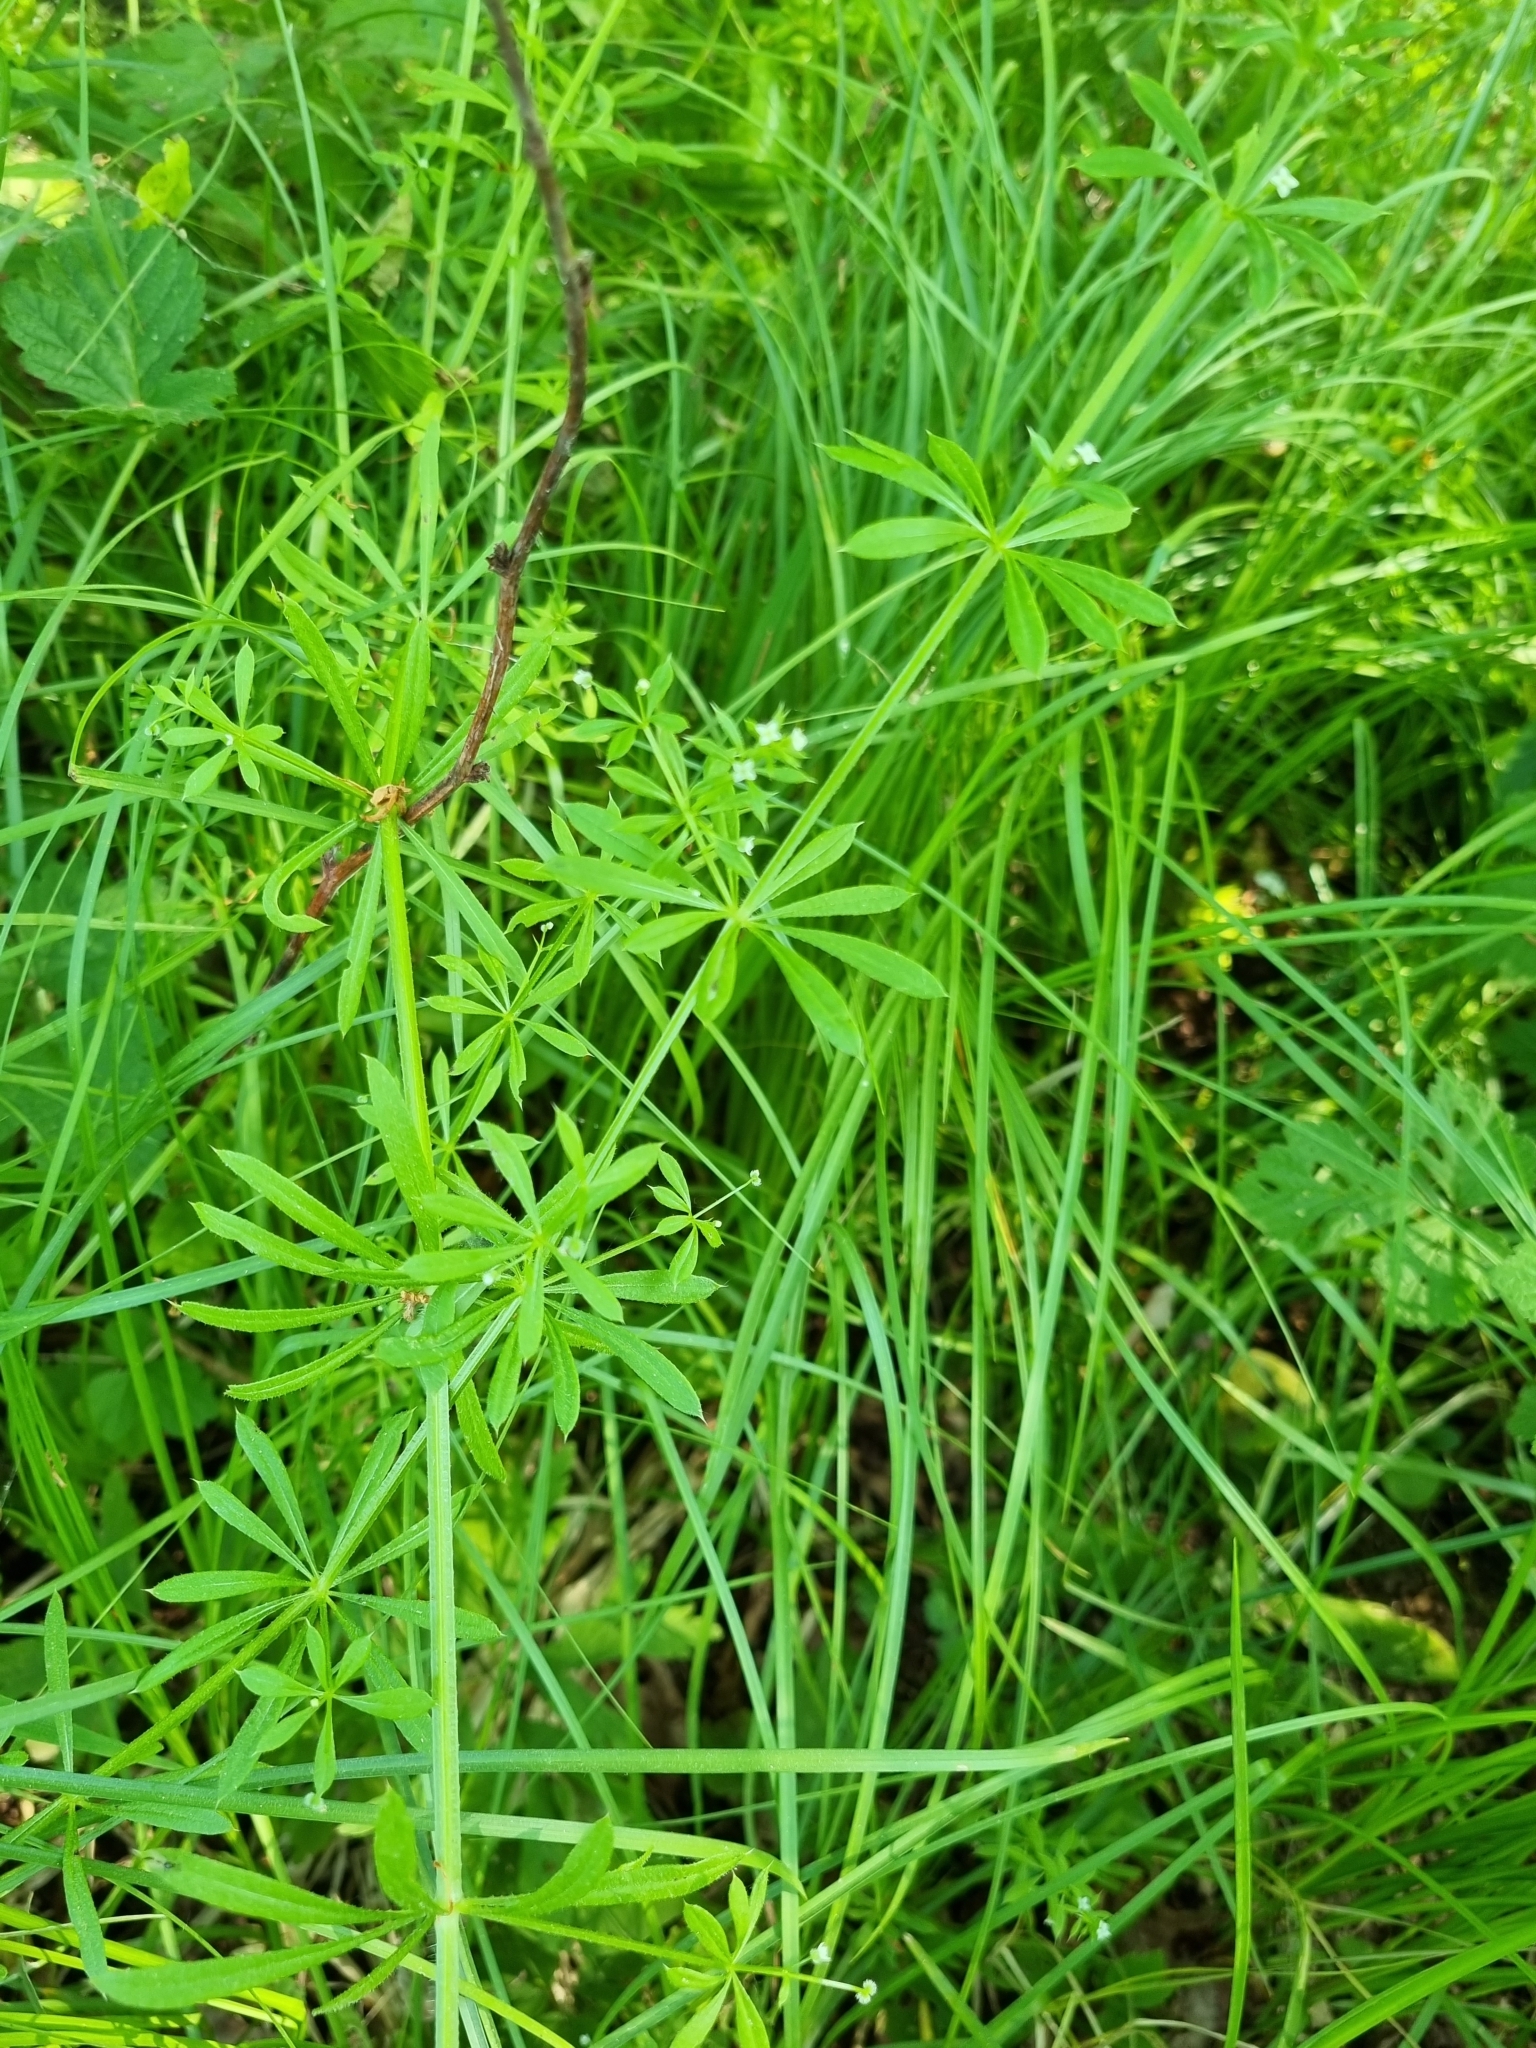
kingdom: Plantae
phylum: Tracheophyta
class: Magnoliopsida
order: Gentianales
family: Rubiaceae
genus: Galium
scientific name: Galium aparine
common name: Cleavers
